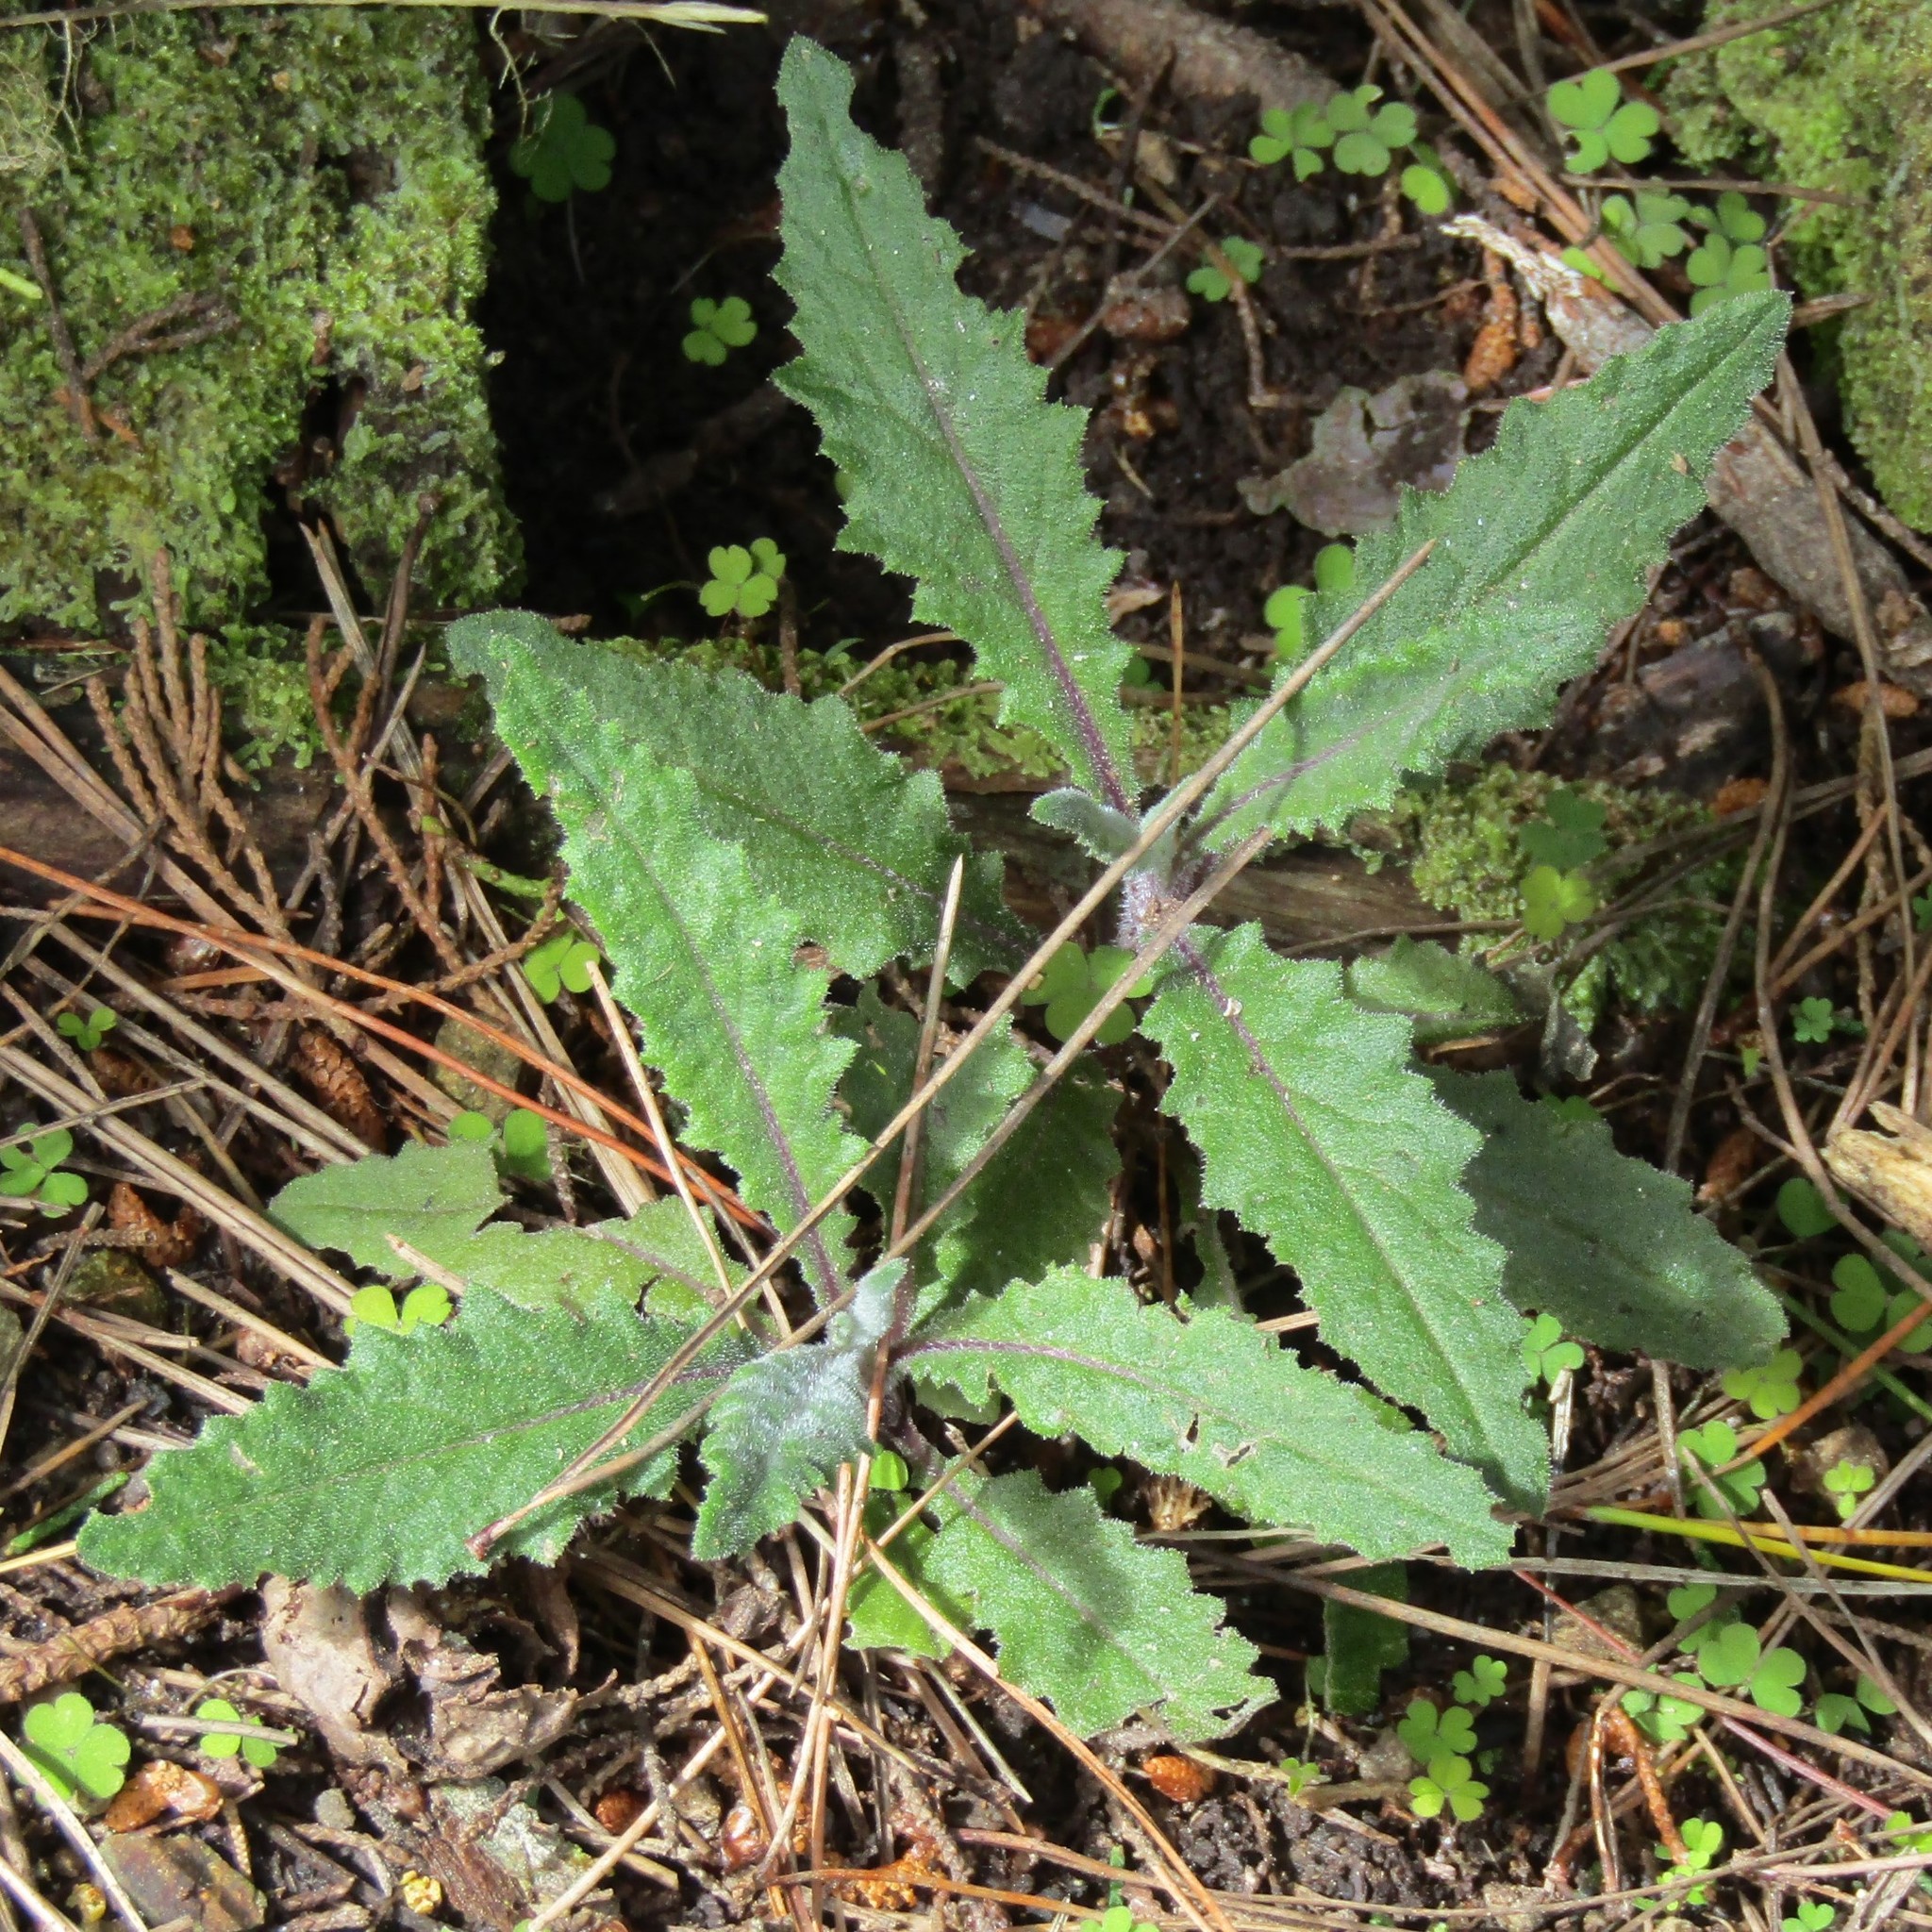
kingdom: Plantae
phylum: Tracheophyta
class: Magnoliopsida
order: Asterales
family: Asteraceae
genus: Senecio
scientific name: Senecio minimus
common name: Toothed fireweed
